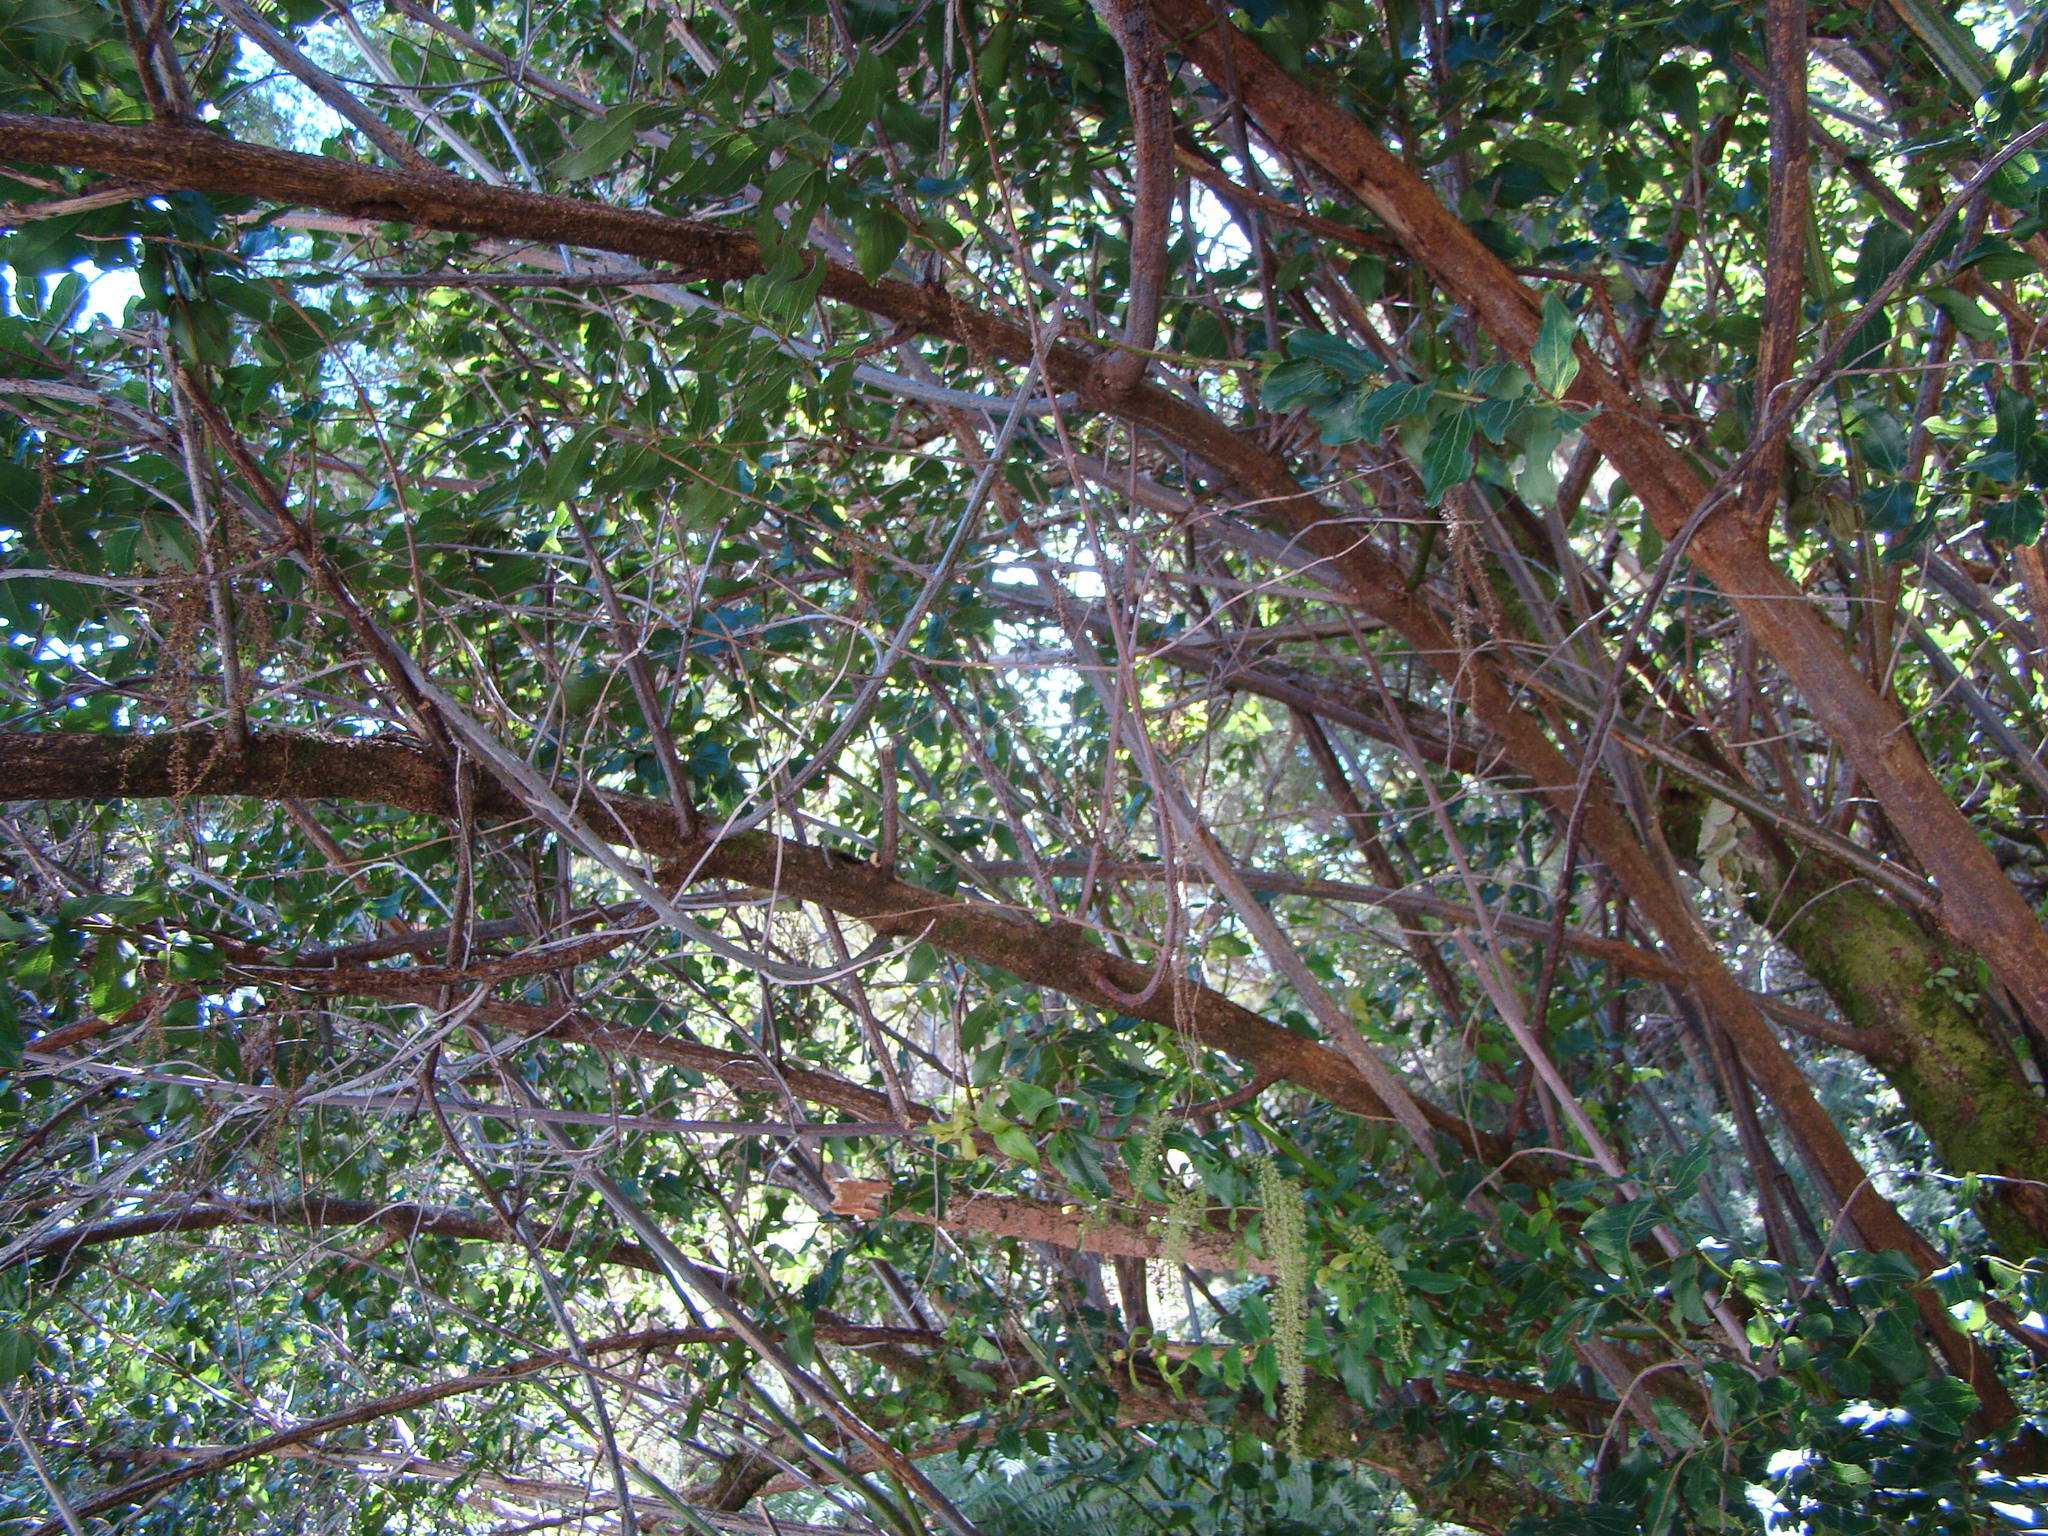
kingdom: Plantae
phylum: Tracheophyta
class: Magnoliopsida
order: Cucurbitales
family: Coriariaceae
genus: Coriaria
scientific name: Coriaria arborea
